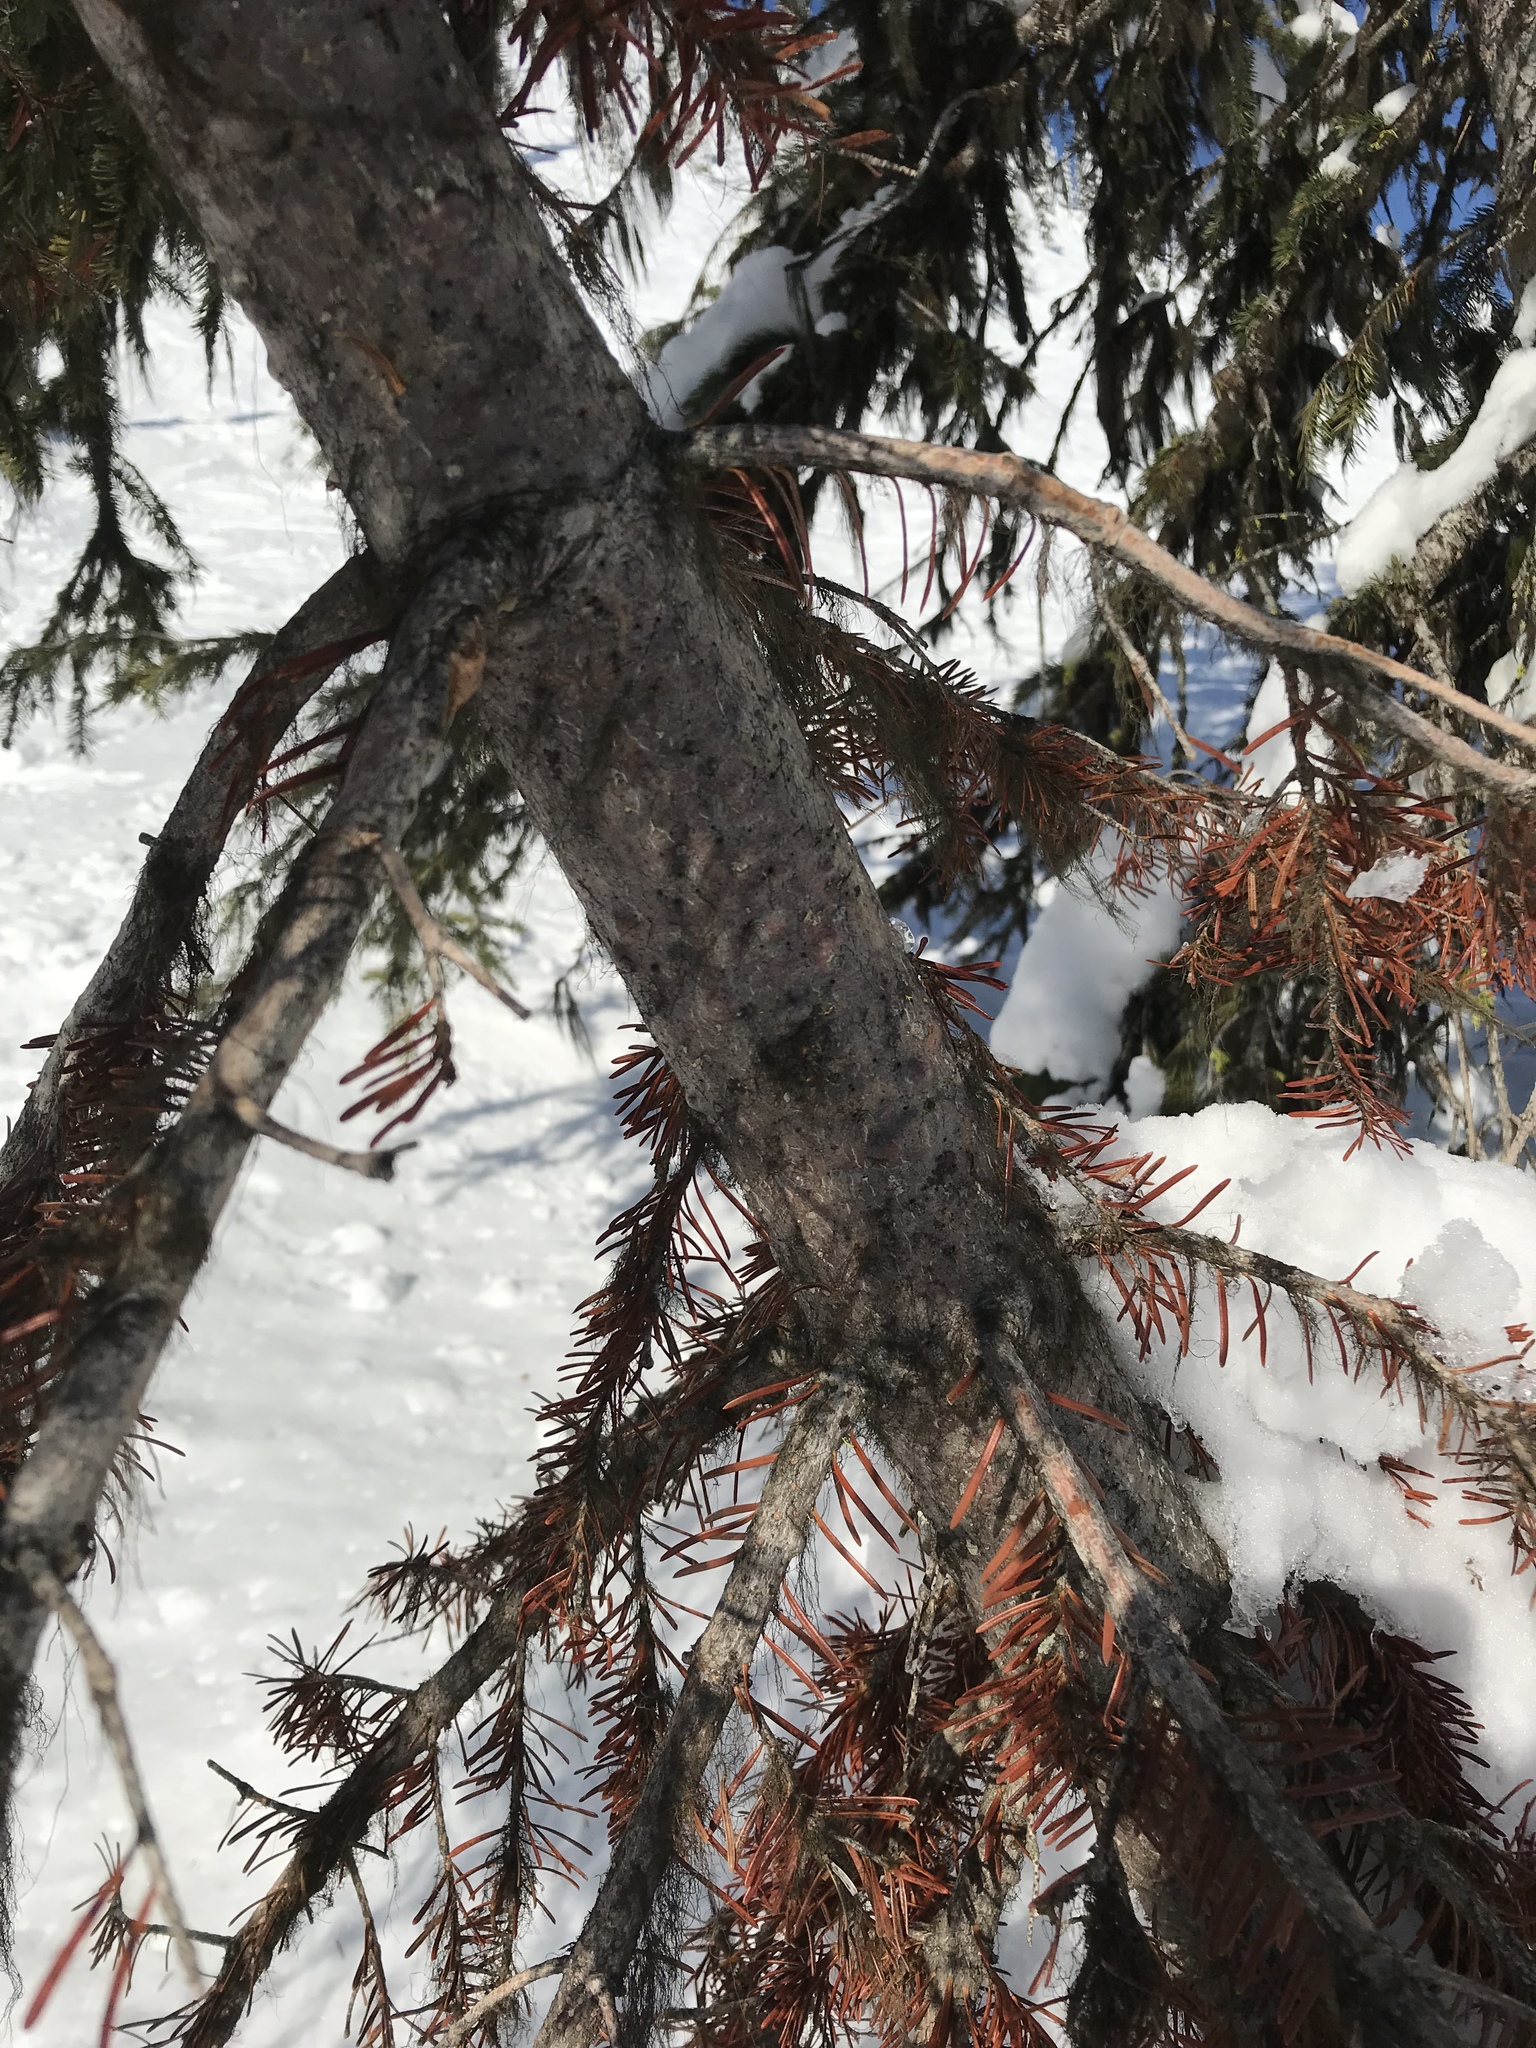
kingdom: Plantae
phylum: Tracheophyta
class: Pinopsida
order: Pinales
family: Pinaceae
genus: Abies
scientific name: Abies lasiocarpa
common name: Subalpine fir
